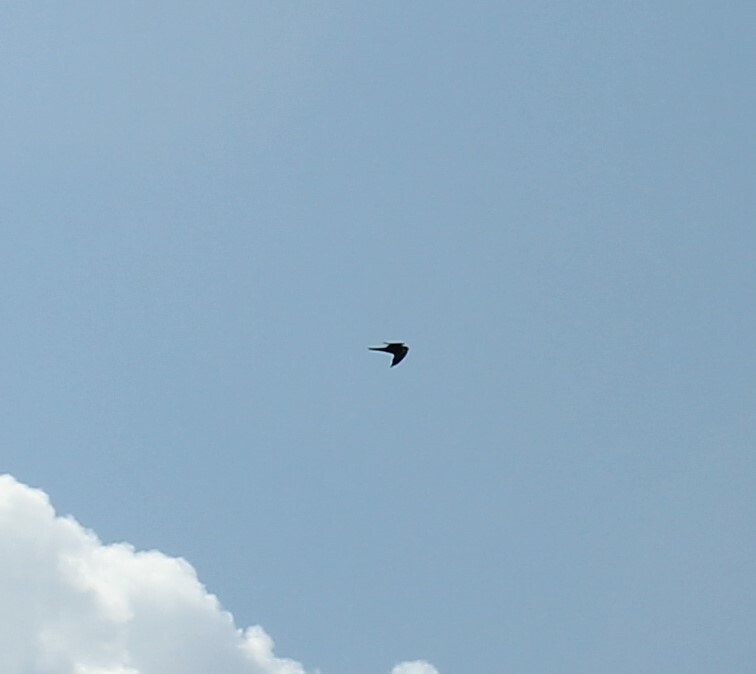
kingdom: Animalia
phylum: Chordata
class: Aves
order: Falconiformes
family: Falconidae
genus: Falco
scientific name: Falco subbuteo
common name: Eurasian hobby
